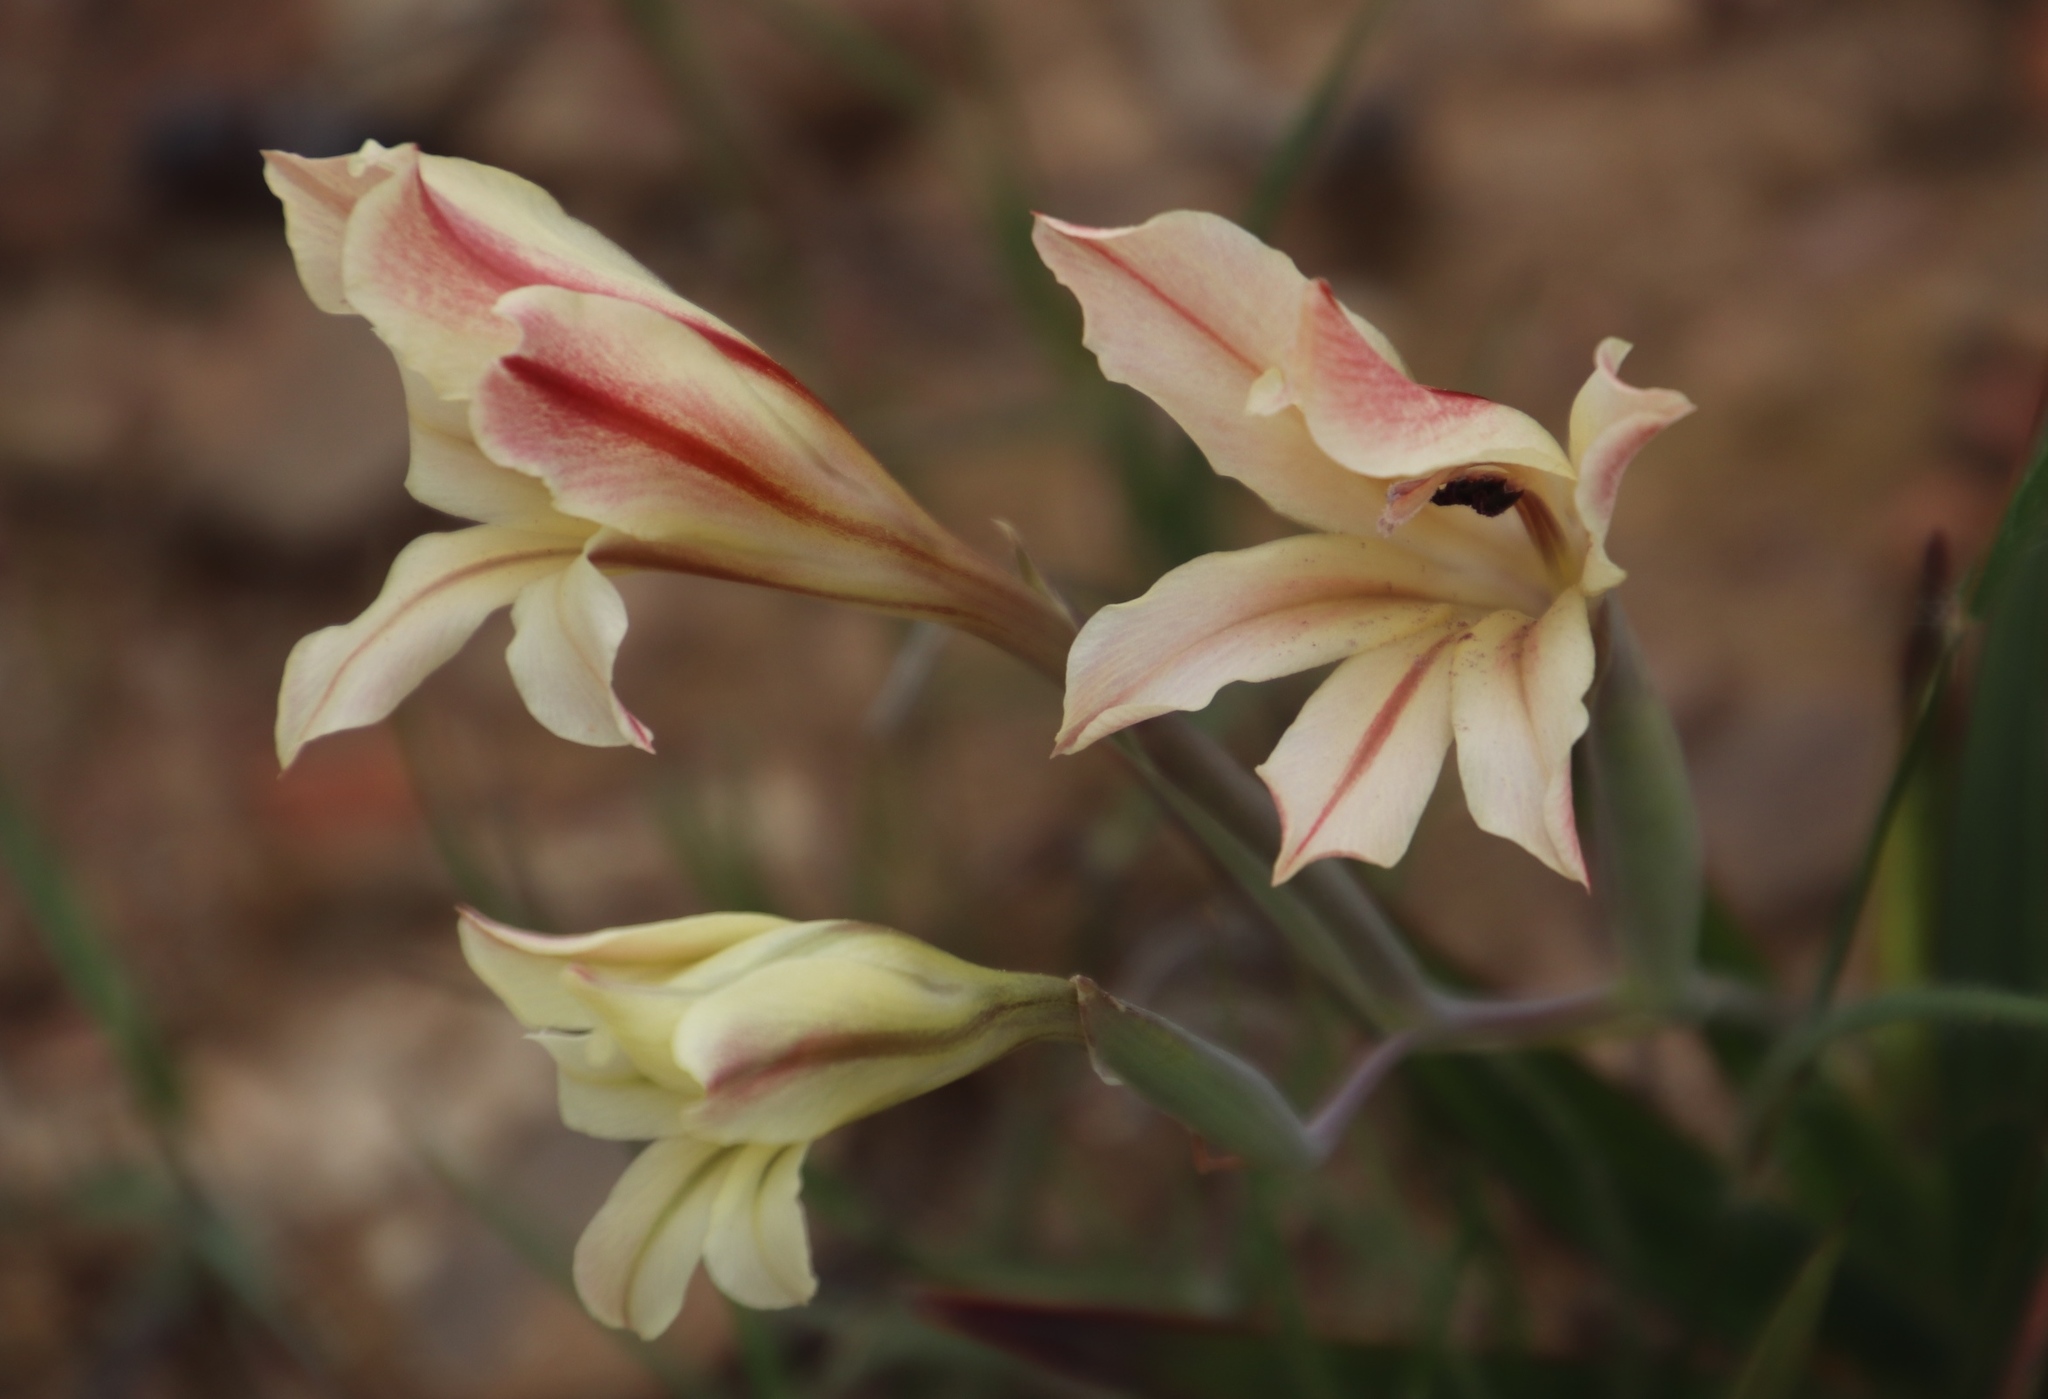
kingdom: Plantae
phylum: Tracheophyta
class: Liliopsida
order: Asparagales
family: Iridaceae
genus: Gladiolus
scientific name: Gladiolus floribundus
